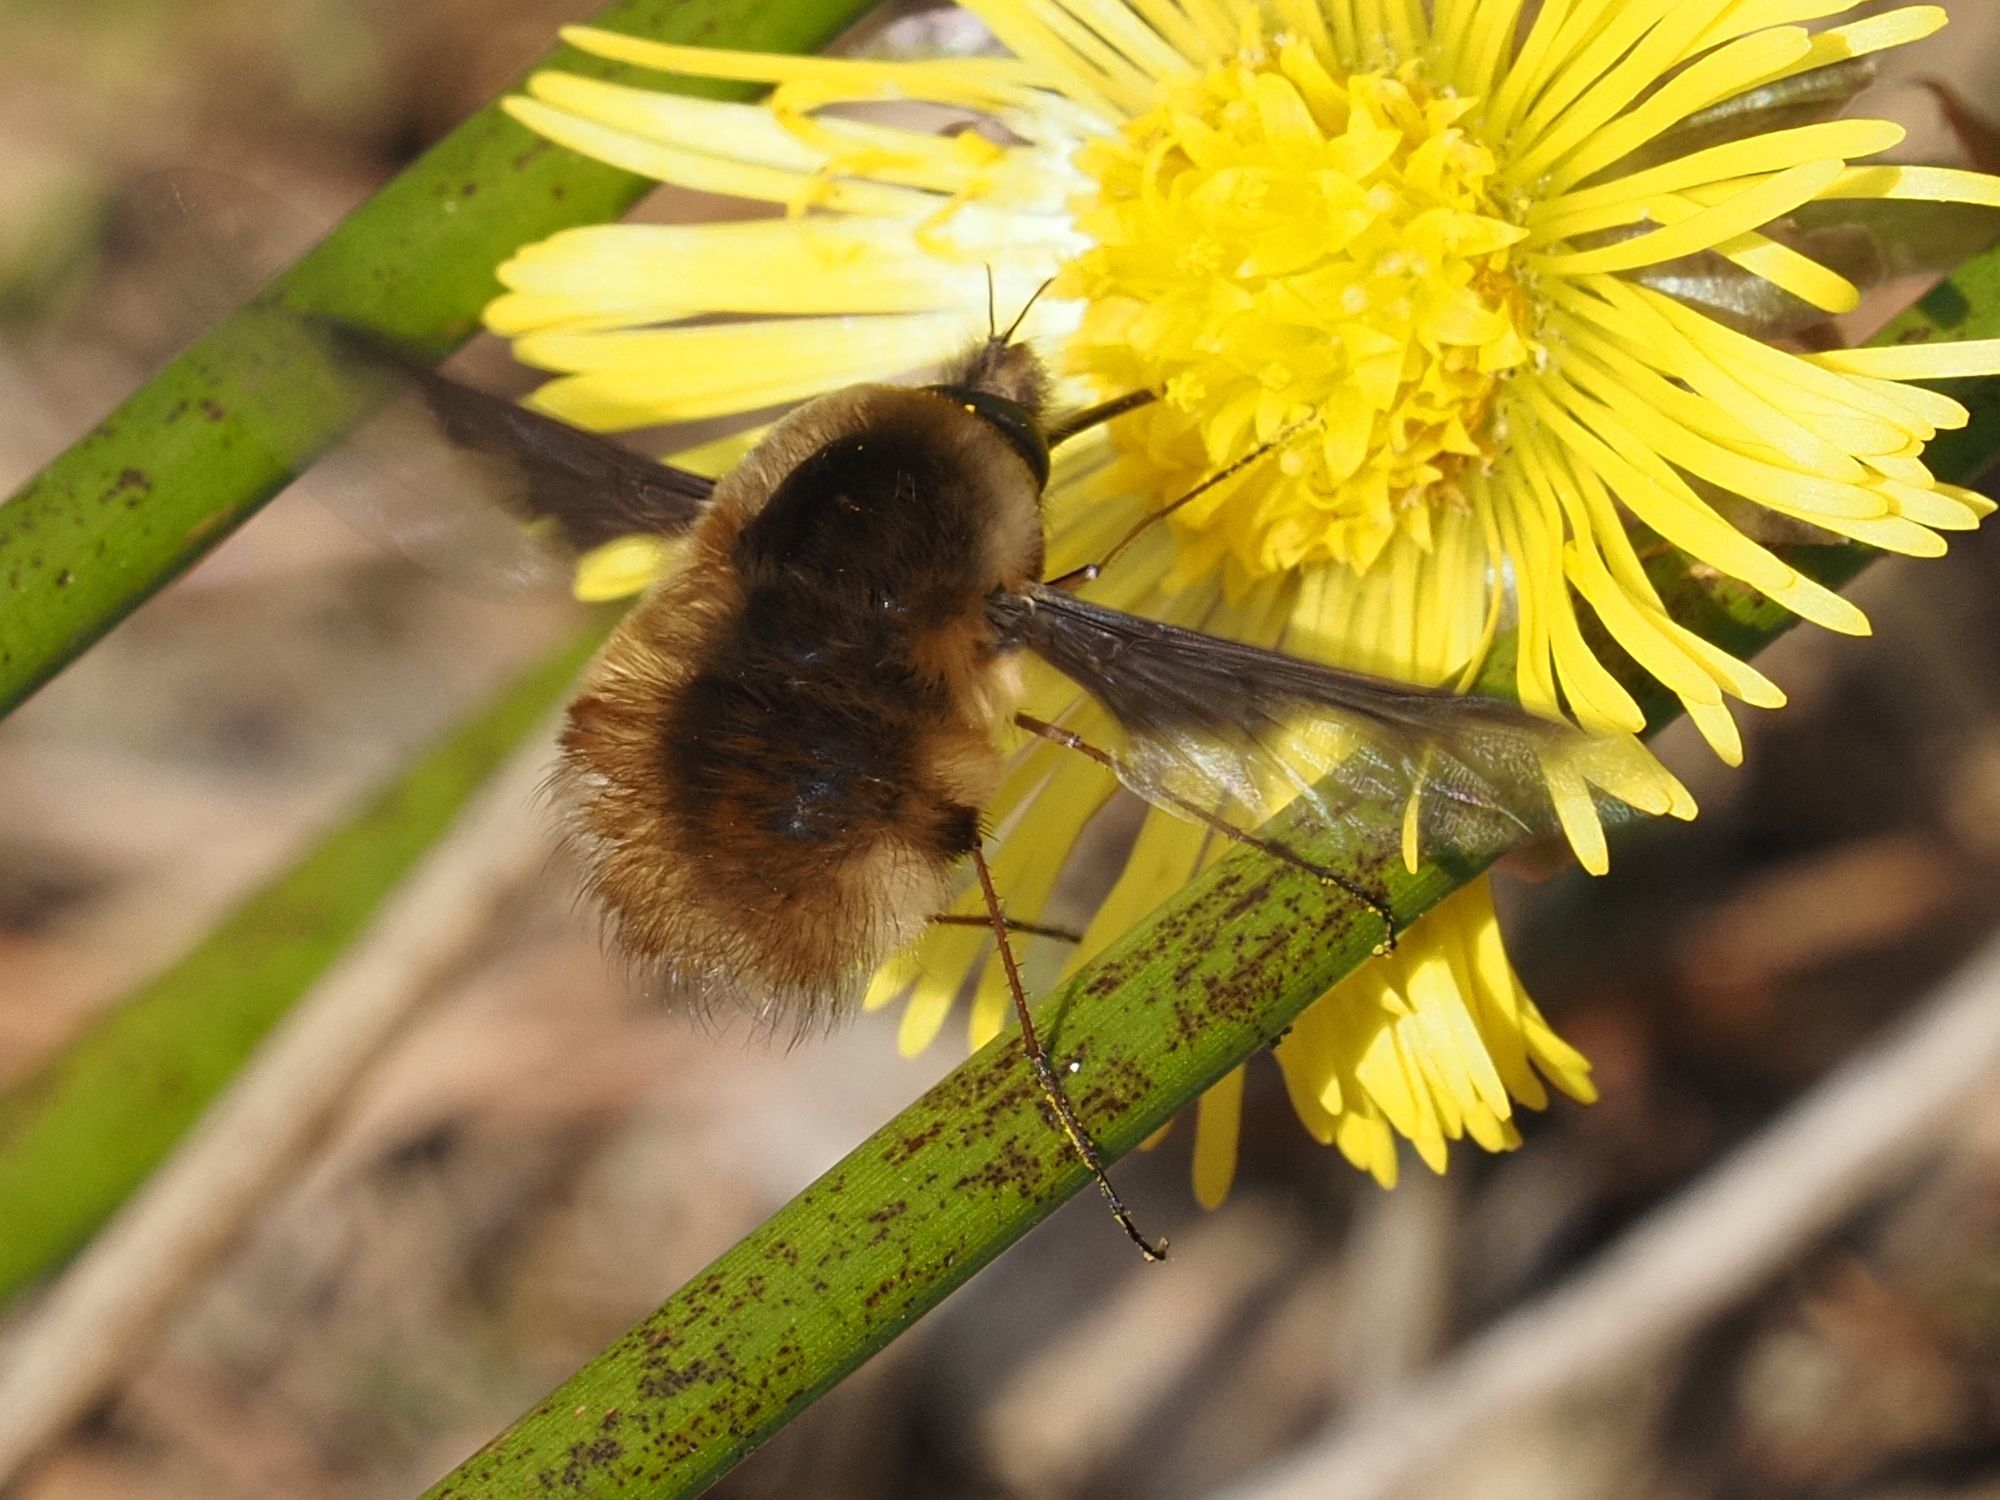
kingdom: Animalia
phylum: Arthropoda
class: Insecta
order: Diptera
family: Bombyliidae
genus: Bombylius
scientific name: Bombylius major
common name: Bee fly
